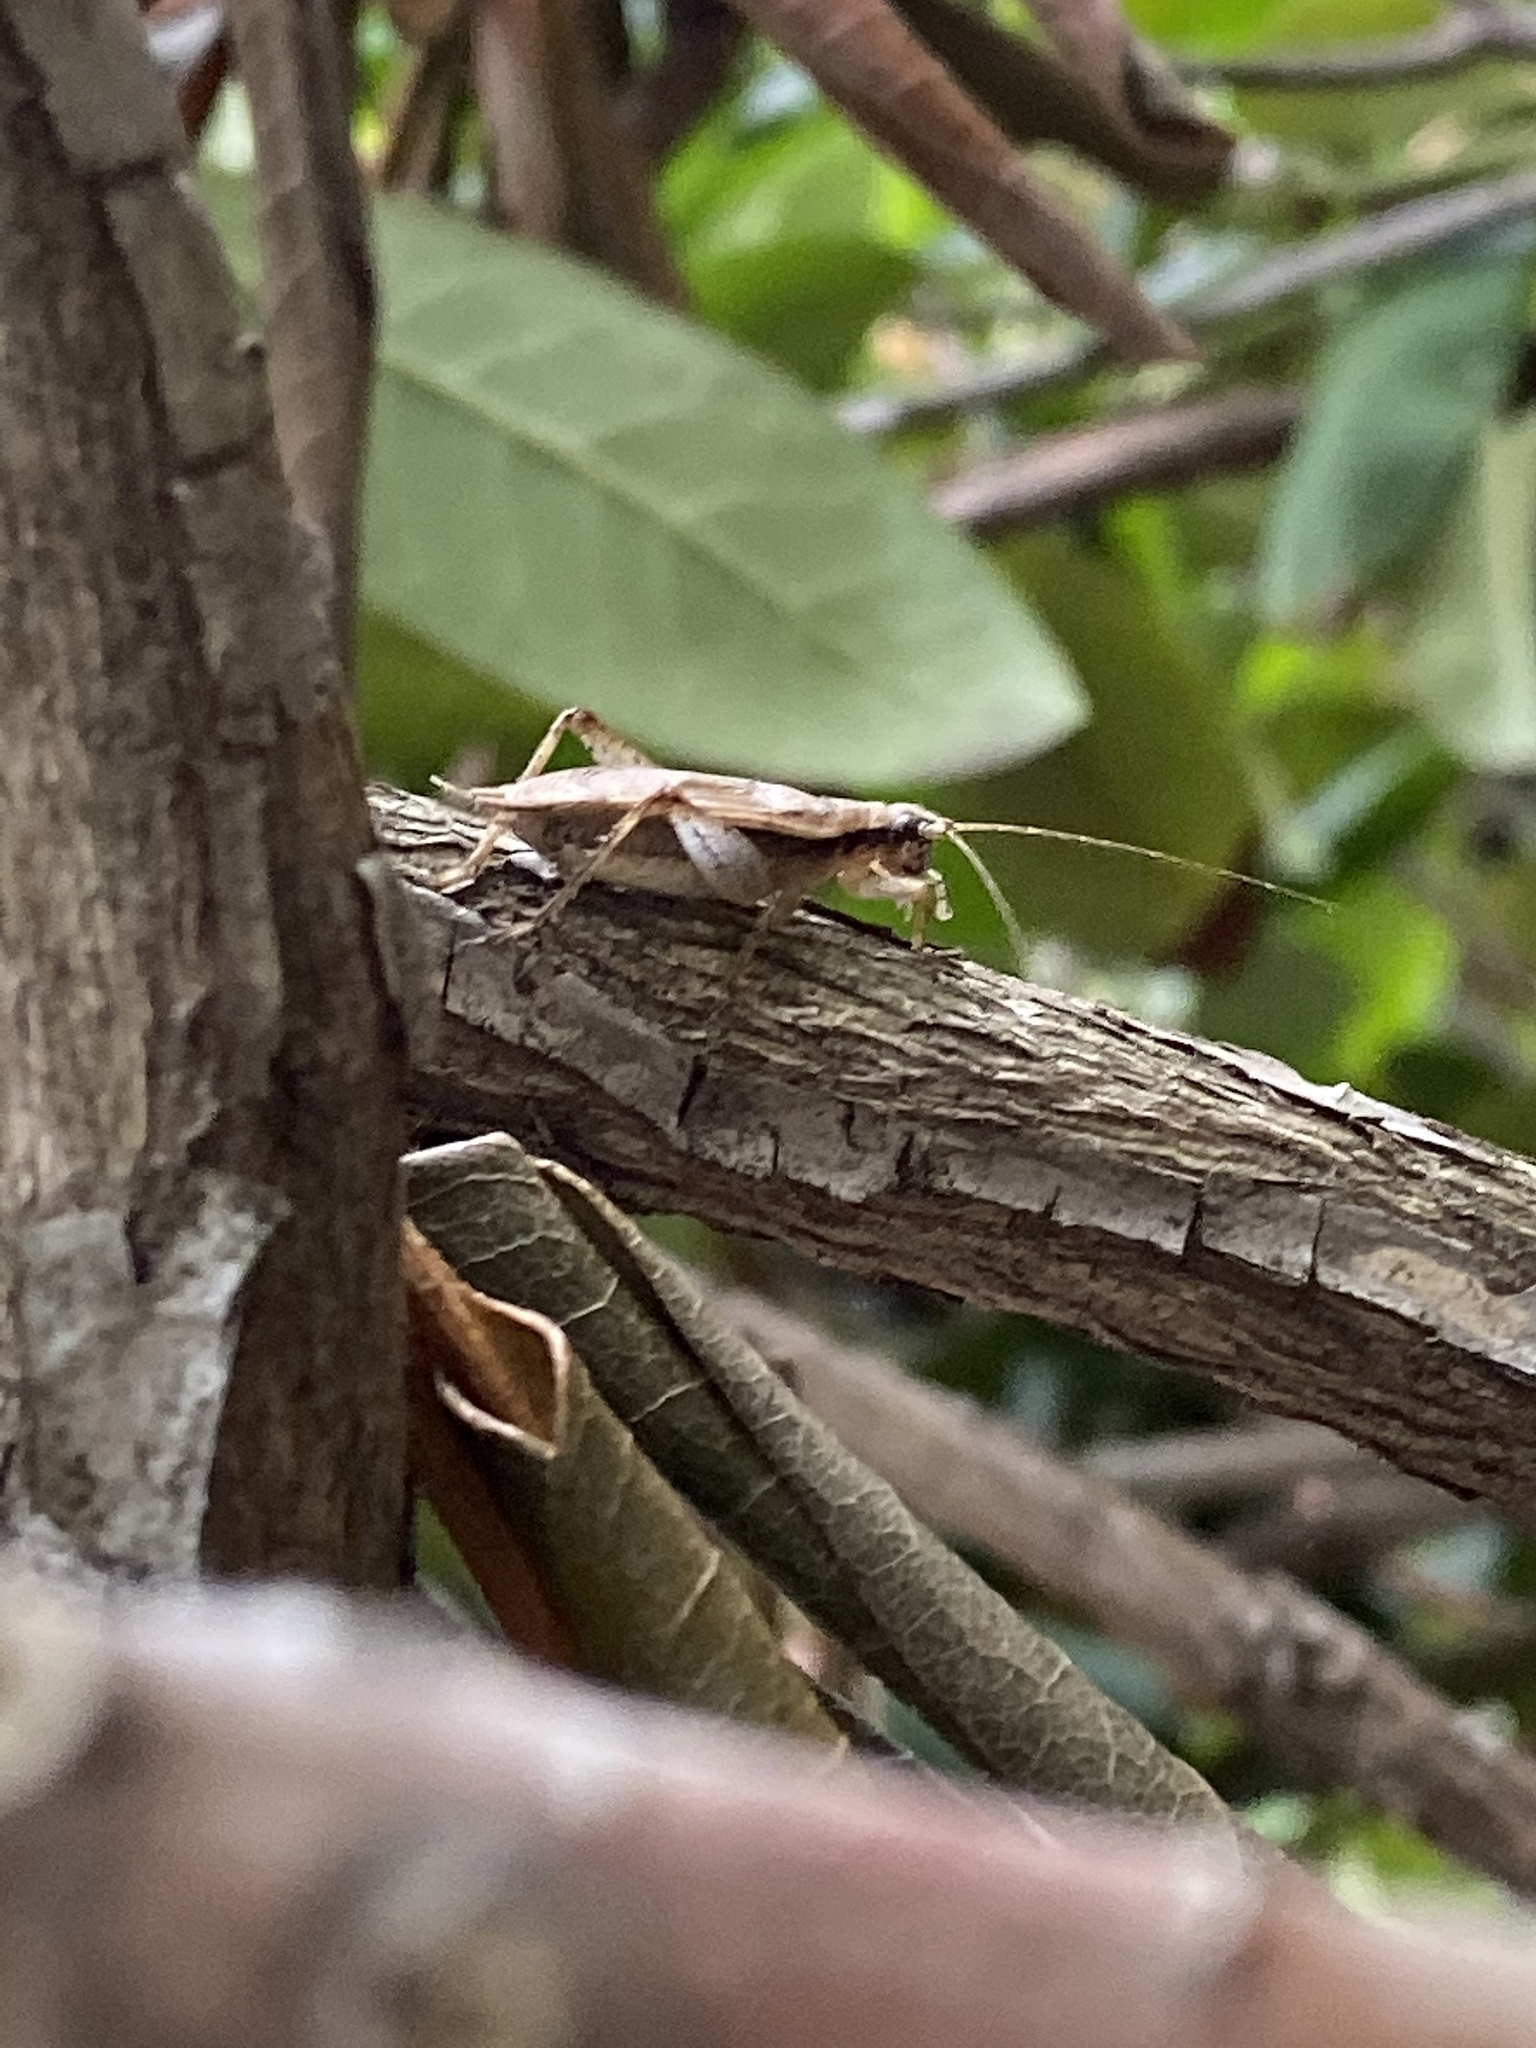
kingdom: Animalia
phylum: Arthropoda
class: Insecta
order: Orthoptera
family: Gryllidae
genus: Hapithus
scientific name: Hapithus saltator
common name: Jumping bush cricket
